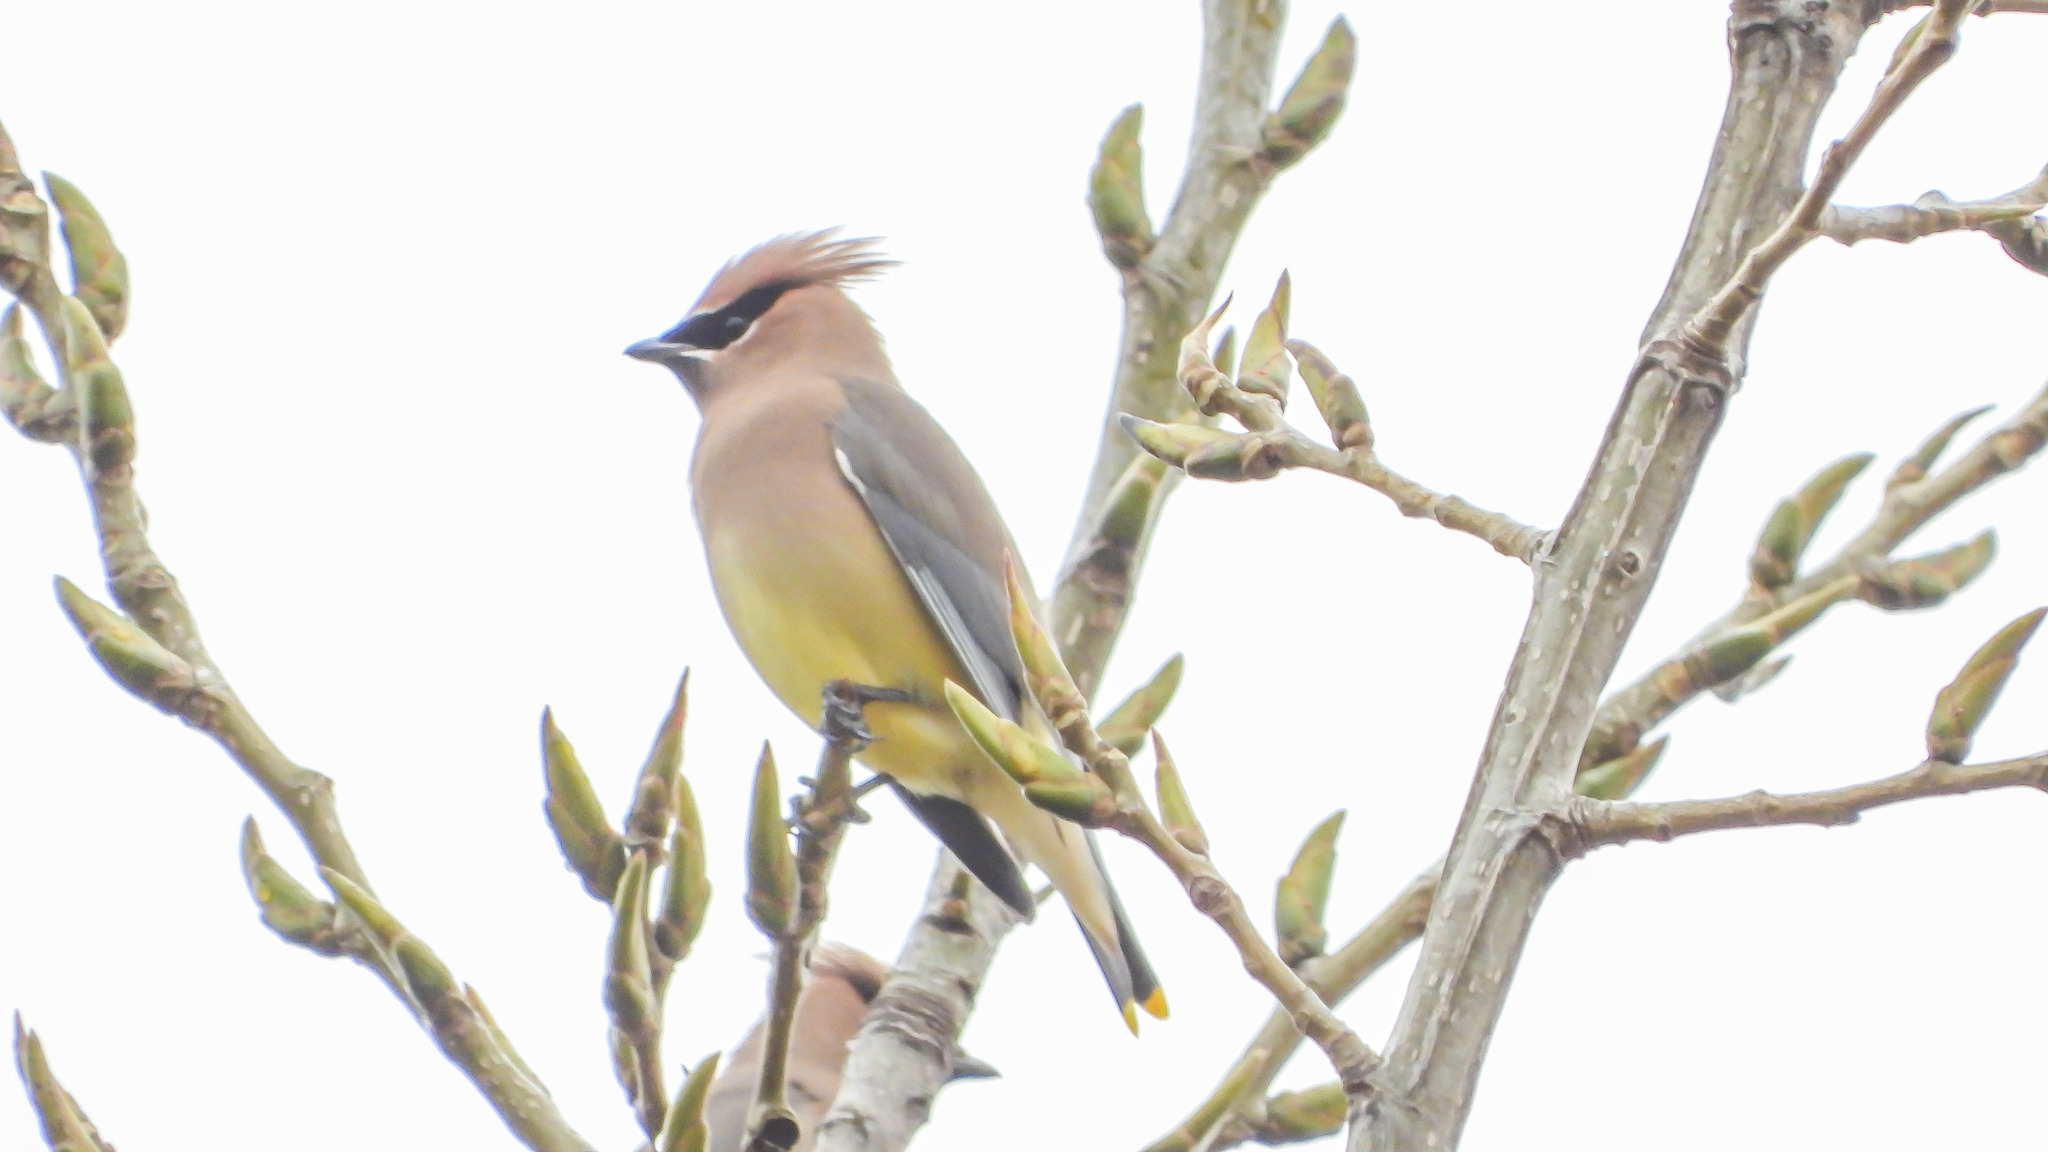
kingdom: Animalia
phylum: Chordata
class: Aves
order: Passeriformes
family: Bombycillidae
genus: Bombycilla
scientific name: Bombycilla cedrorum
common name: Cedar waxwing
